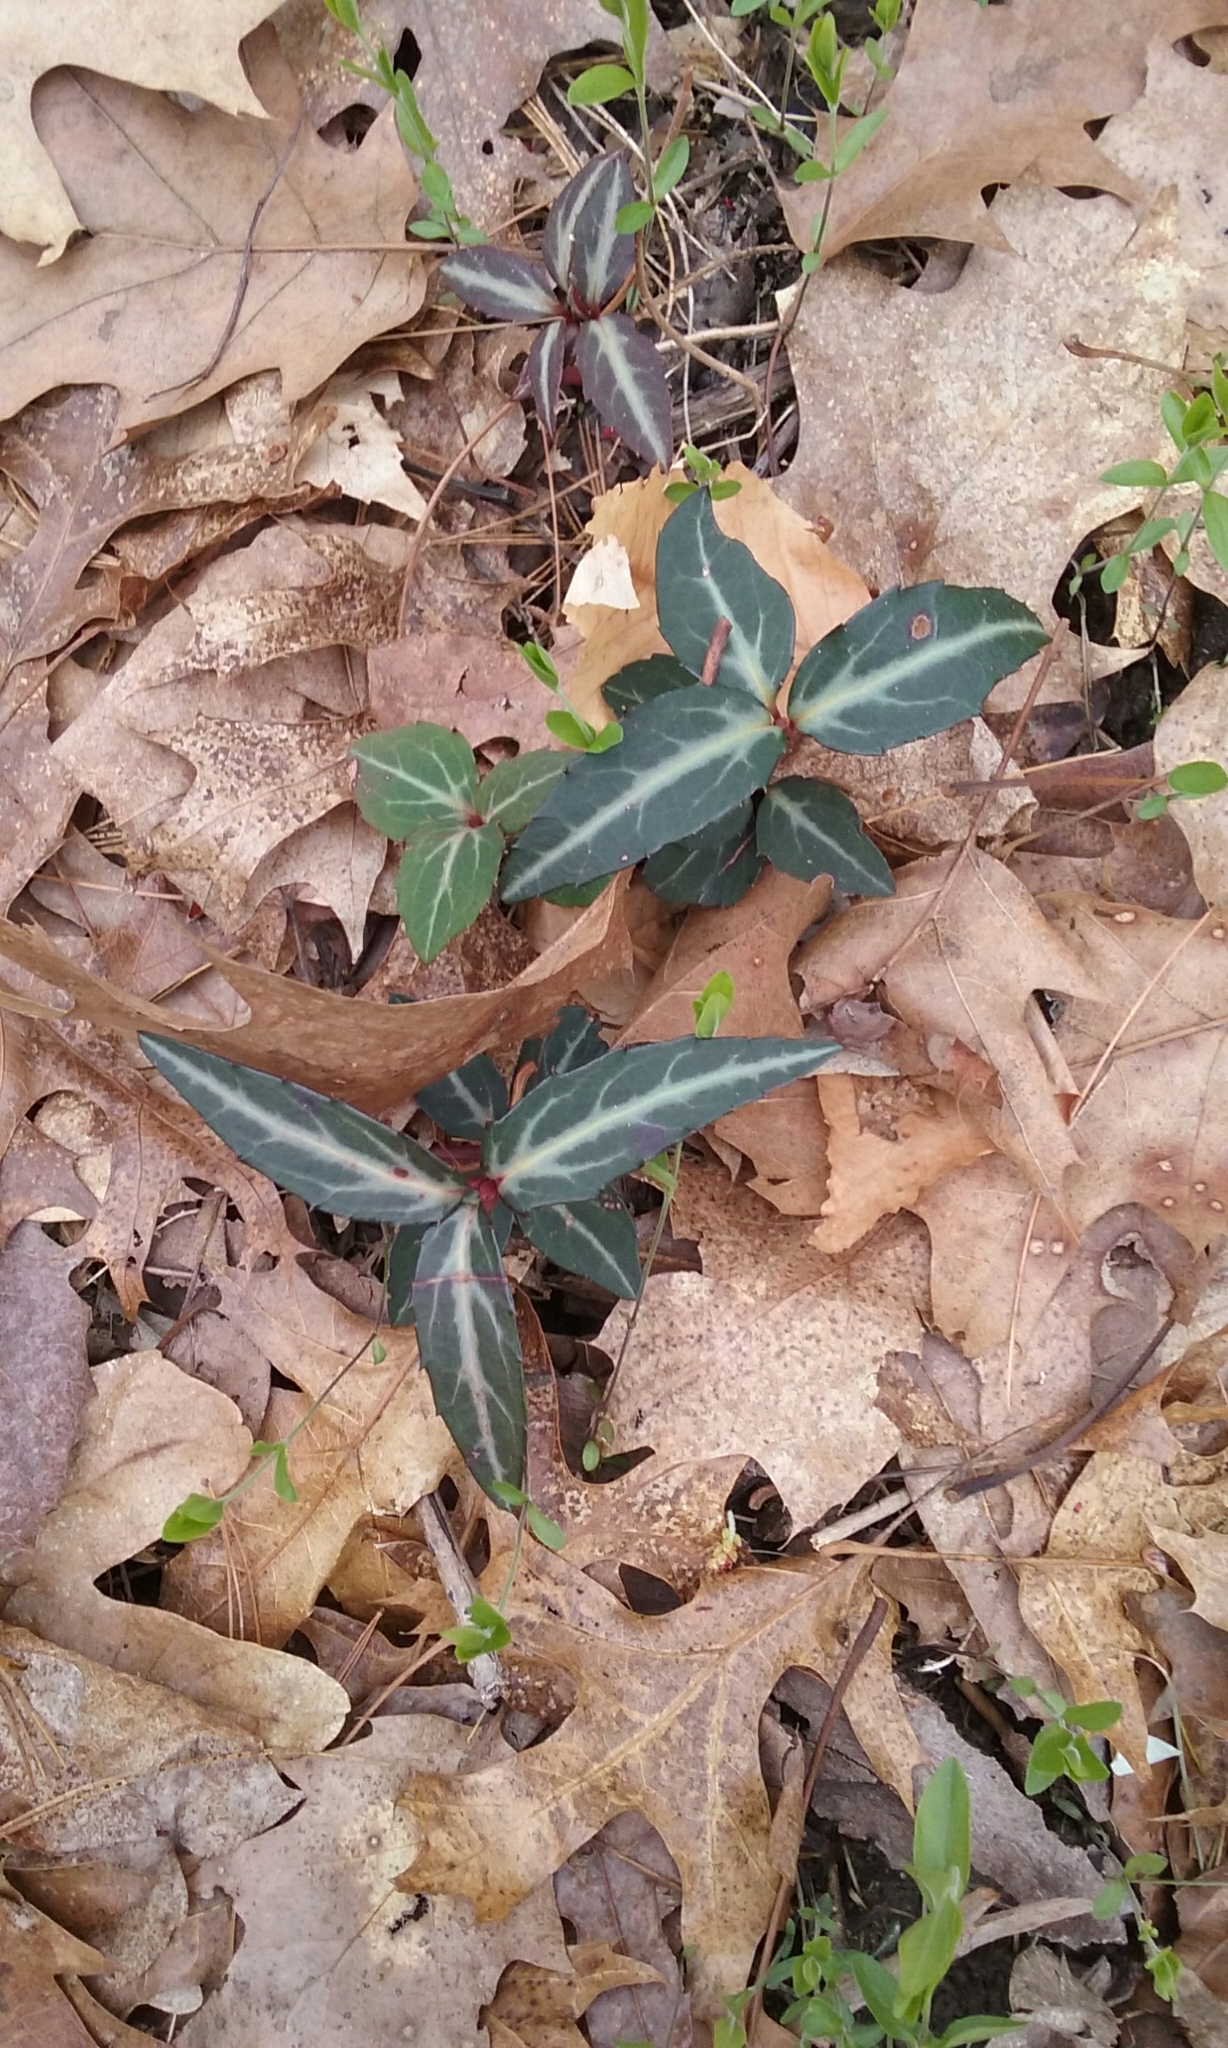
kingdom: Plantae
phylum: Tracheophyta
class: Magnoliopsida
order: Ericales
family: Ericaceae
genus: Chimaphila
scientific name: Chimaphila maculata
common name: Spotted pipsissewa
